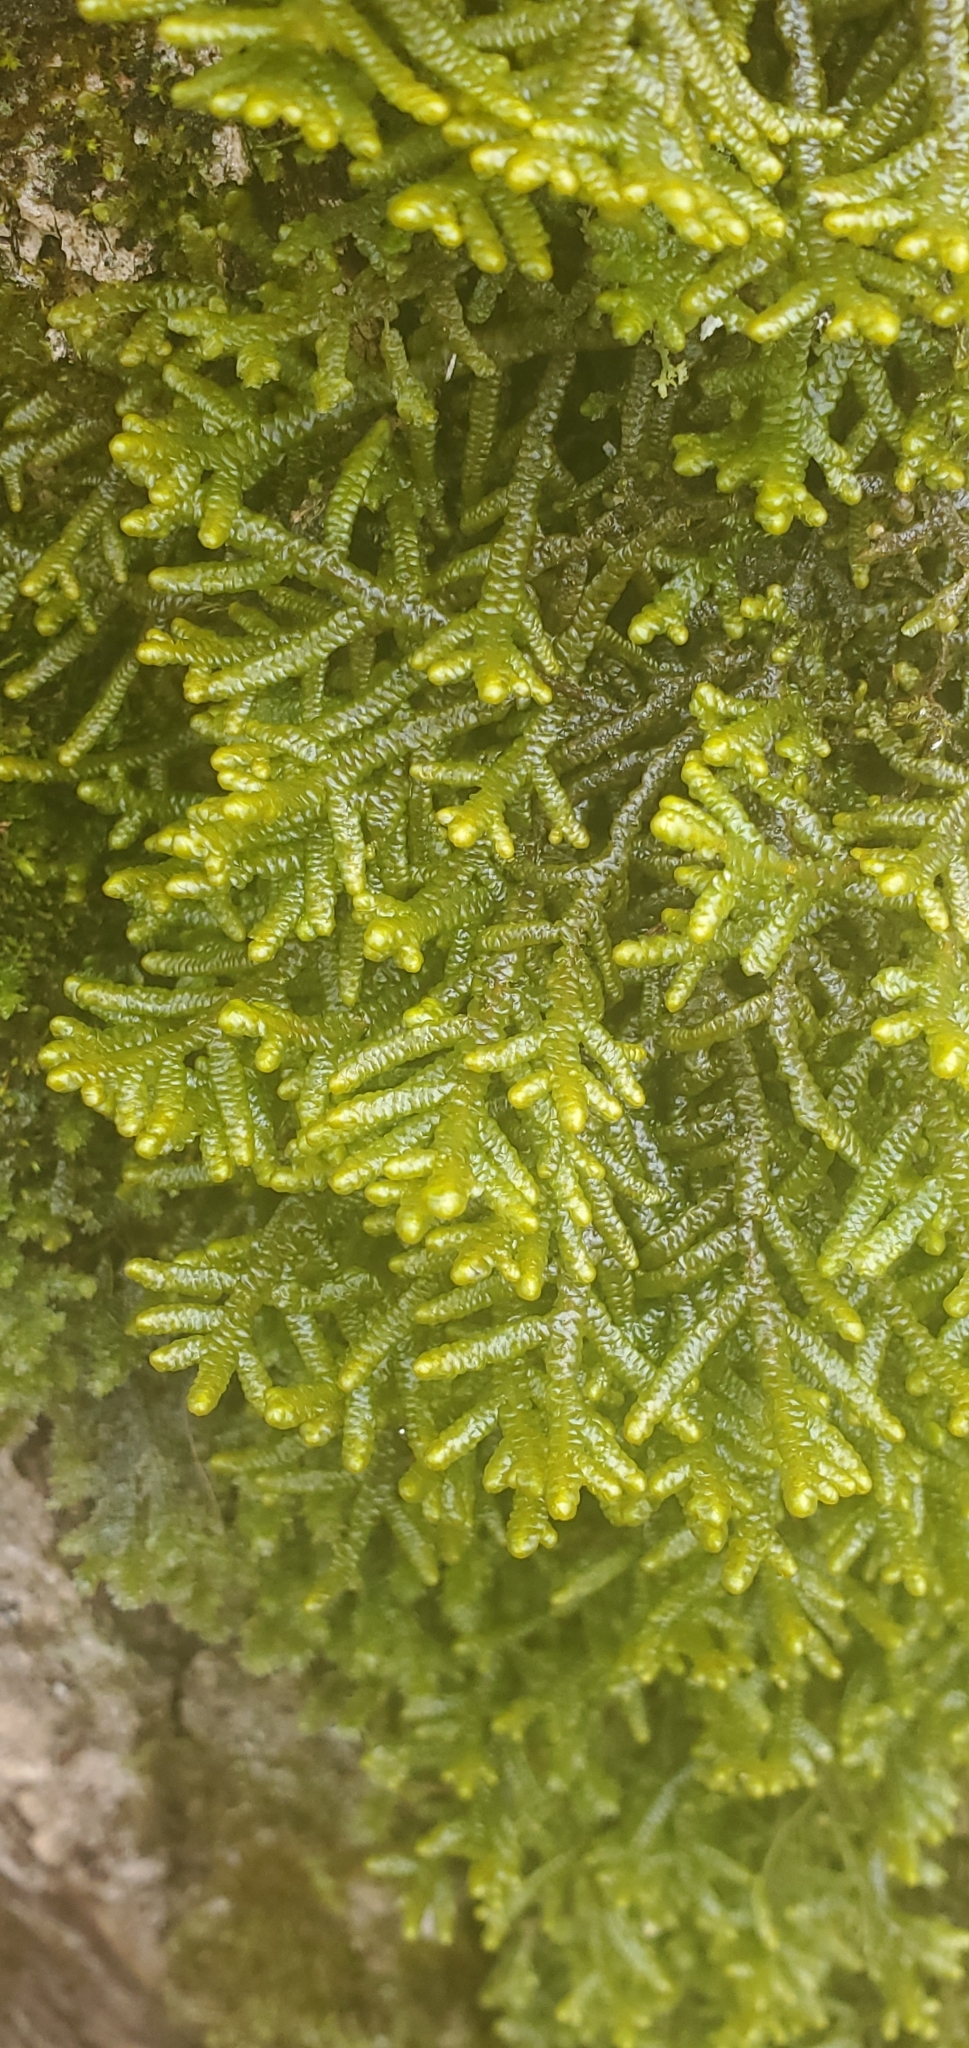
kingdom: Plantae
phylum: Marchantiophyta
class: Jungermanniopsida
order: Porellales
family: Porellaceae
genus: Porella
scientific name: Porella platyphylla
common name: Wall scalewort
